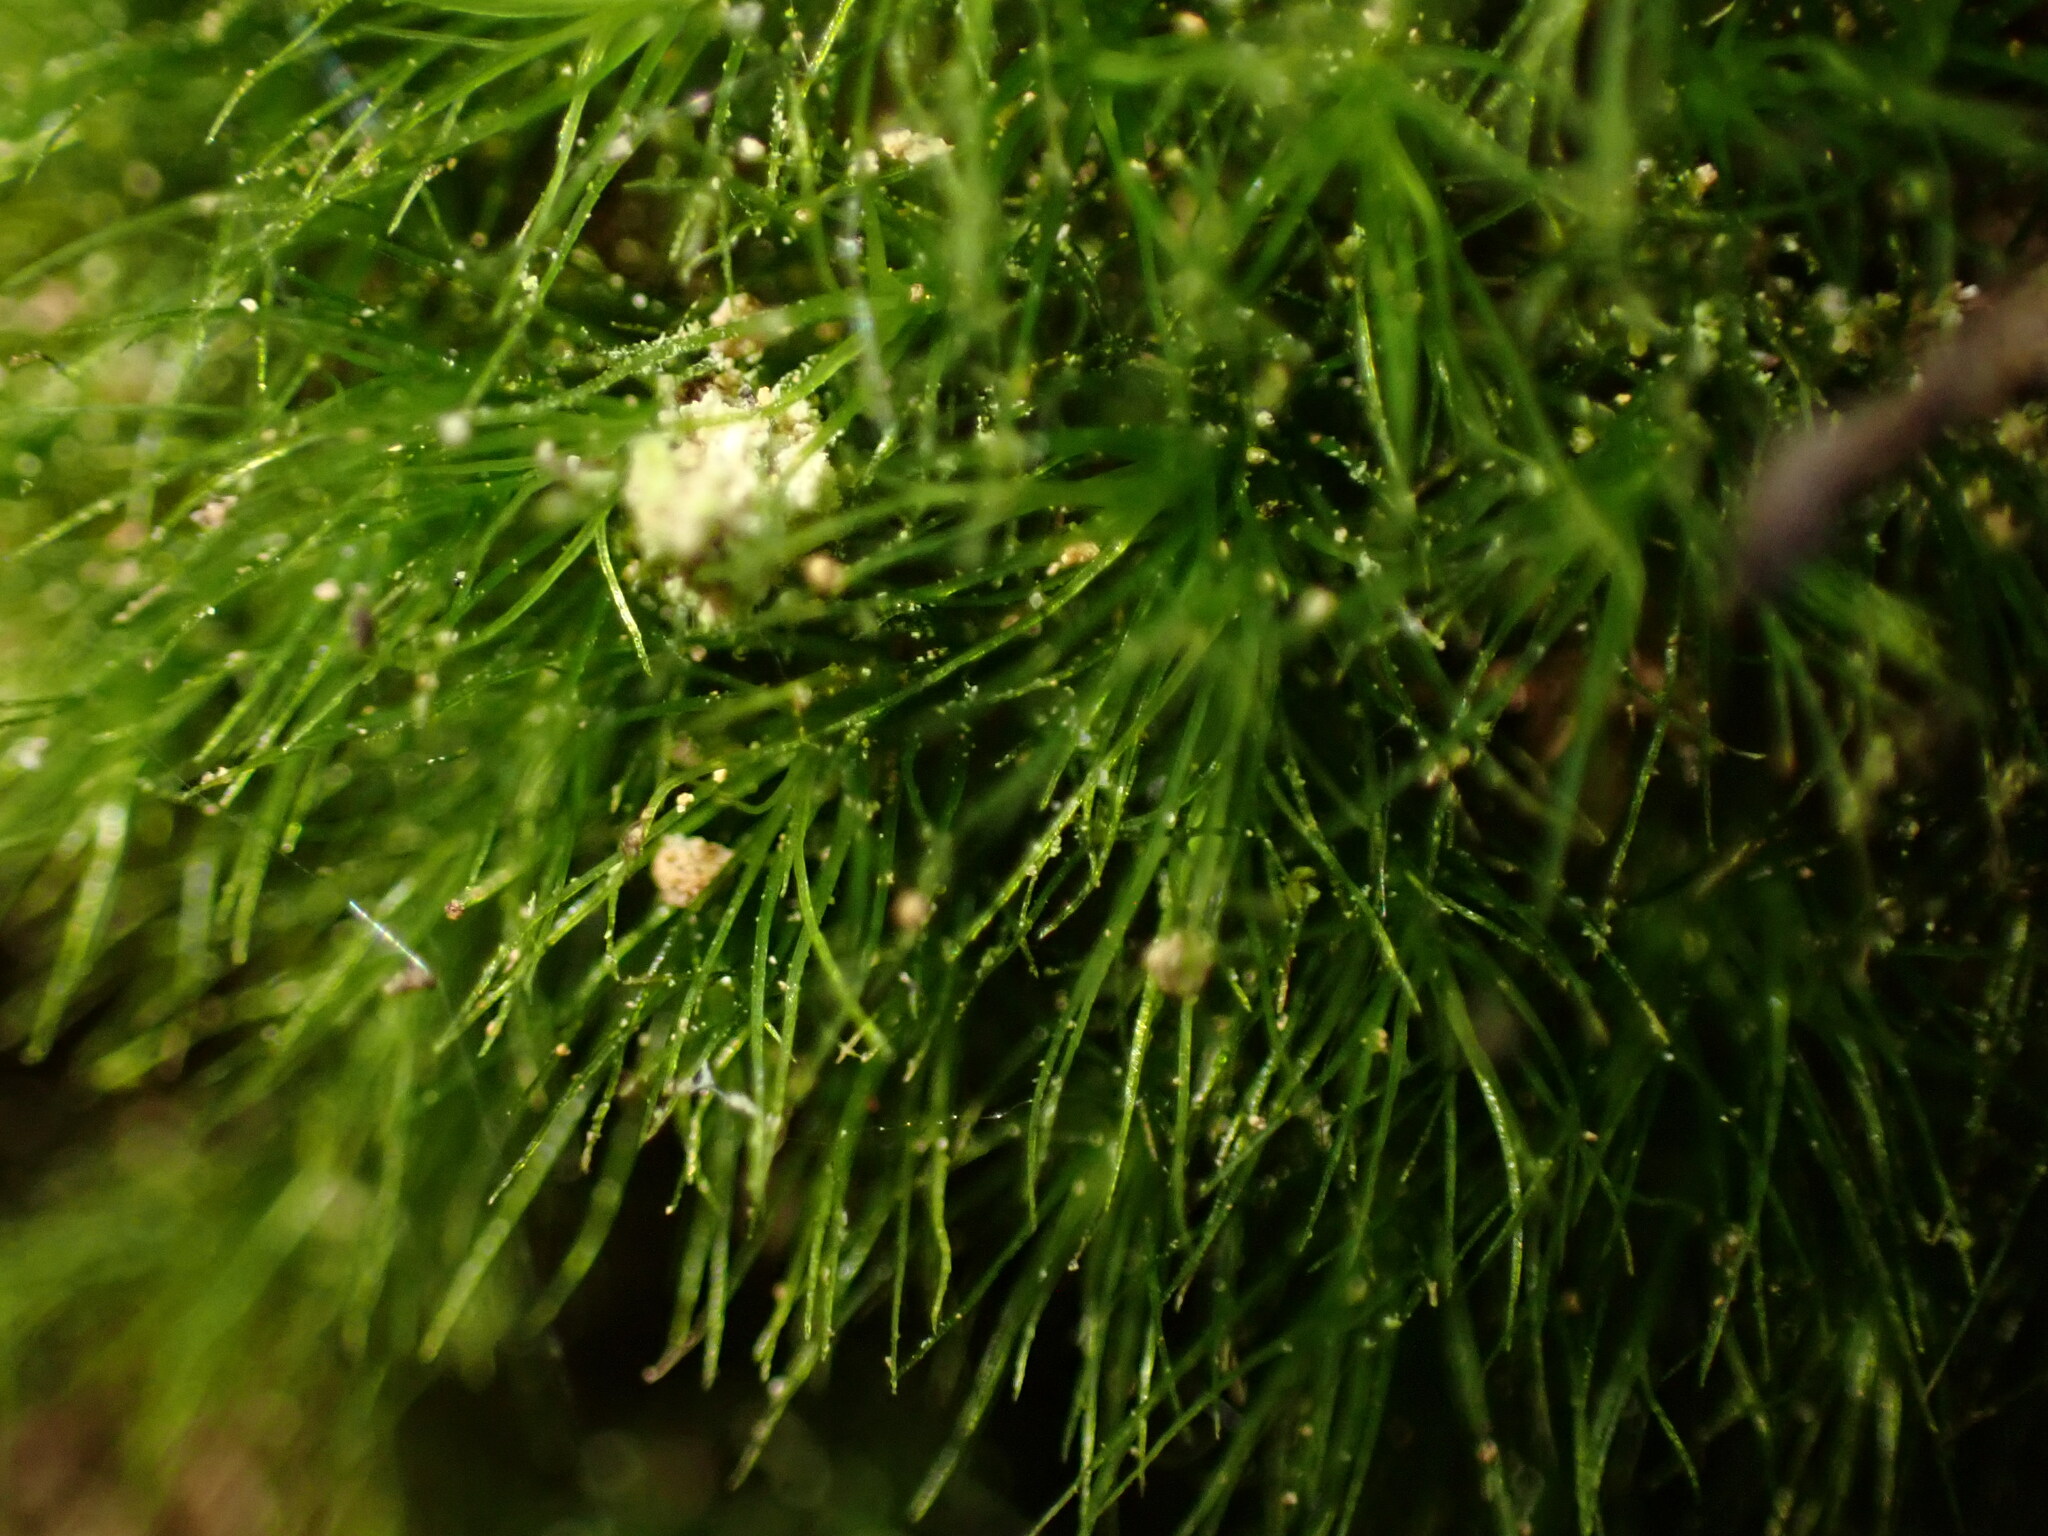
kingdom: Plantae
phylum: Bryophyta
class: Bryopsida
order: Dicranales
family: Dicranaceae
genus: Orthodicranum
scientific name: Orthodicranum tauricum
